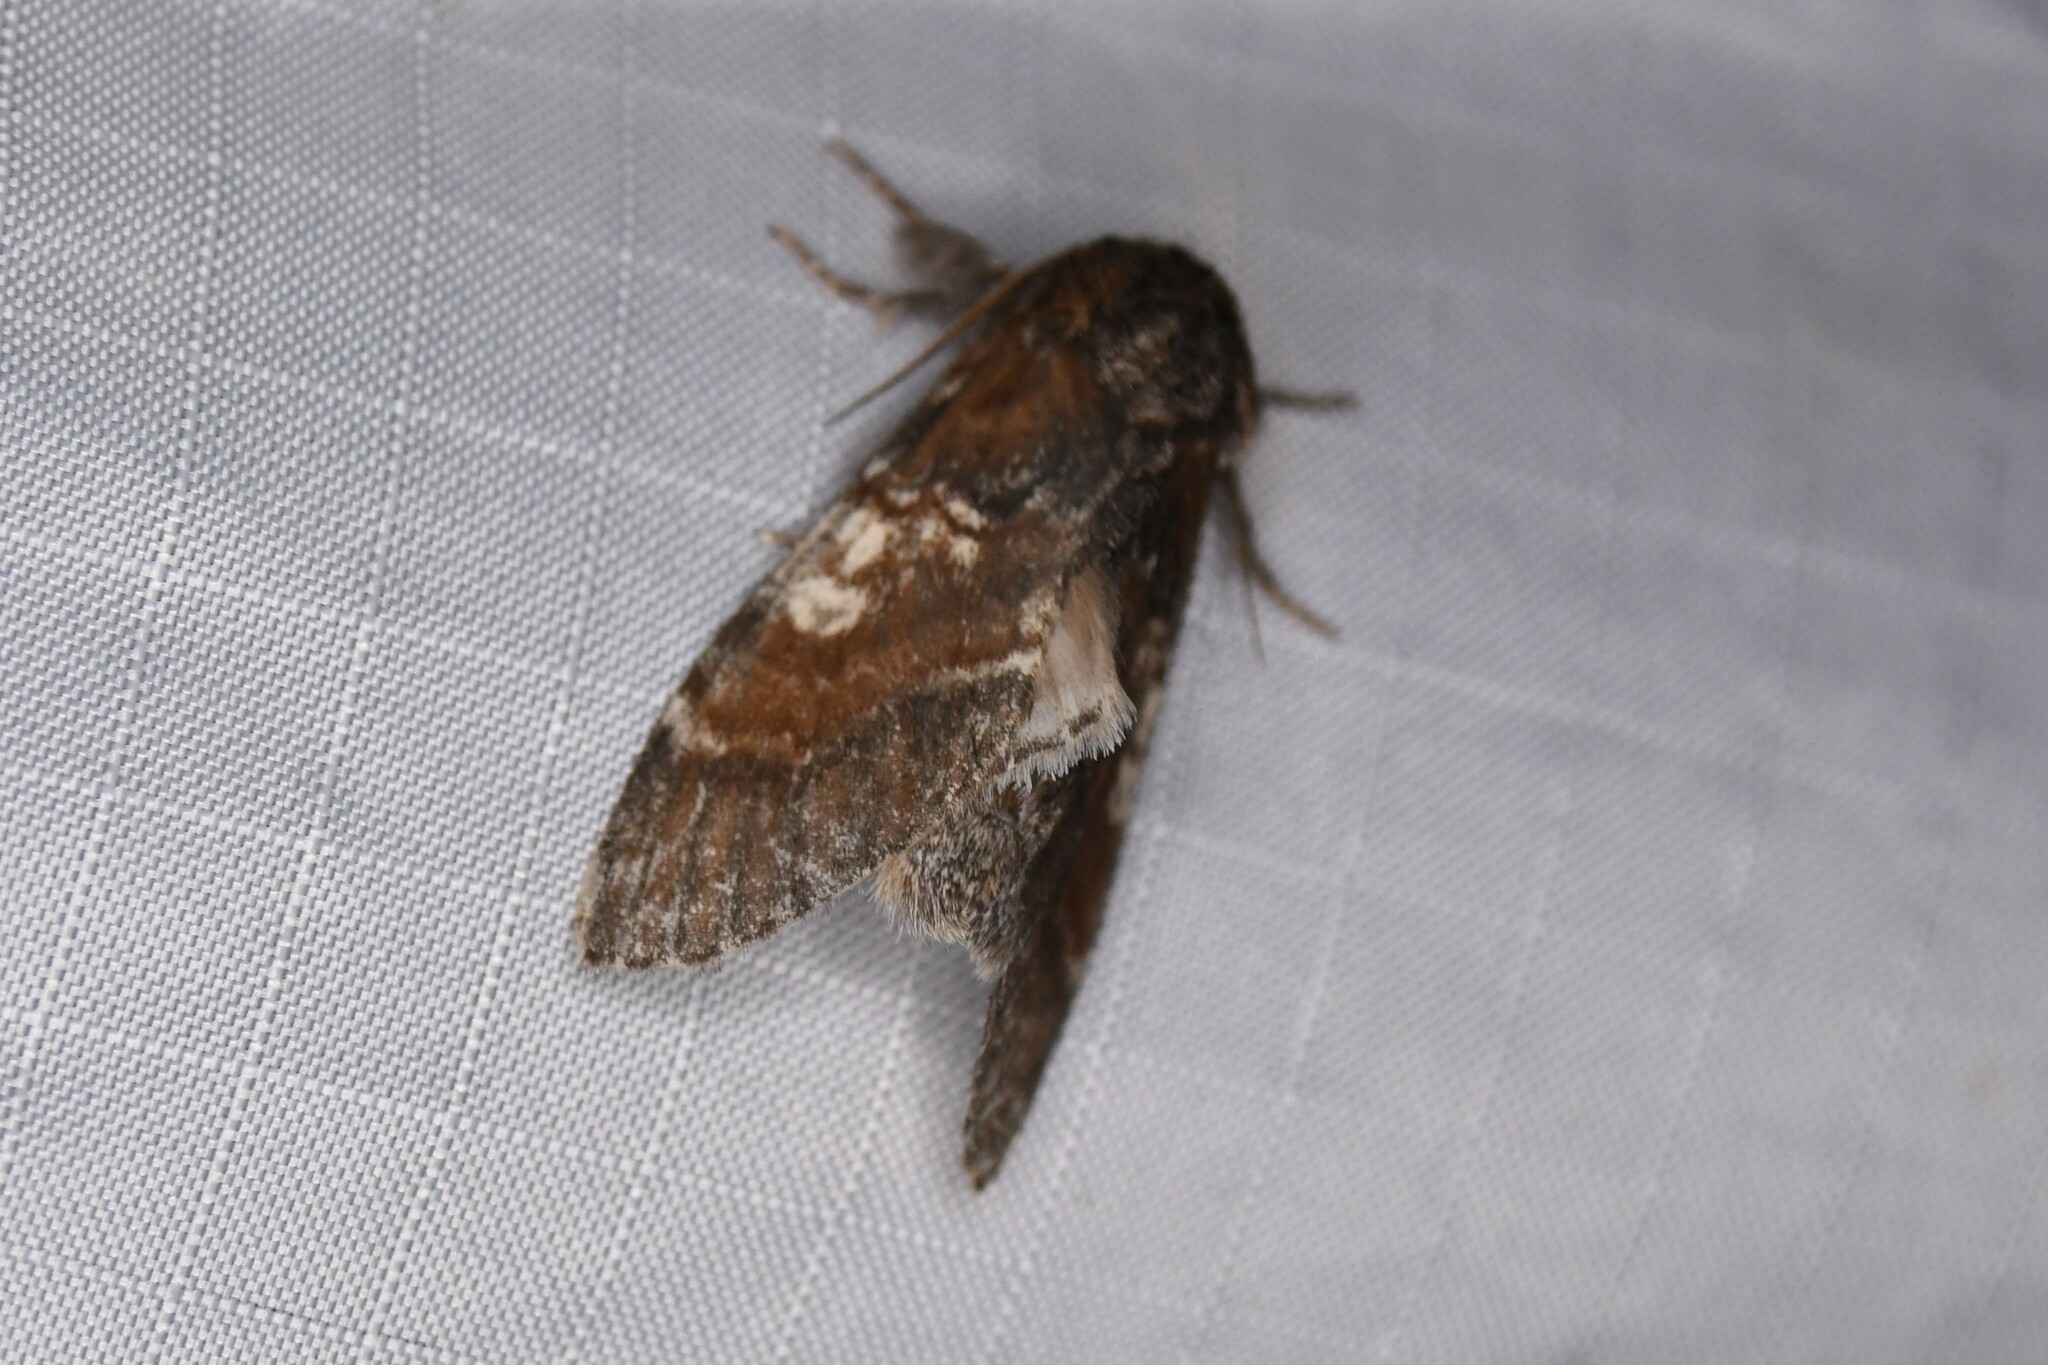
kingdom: Animalia
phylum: Arthropoda
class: Insecta
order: Lepidoptera
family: Notodontidae
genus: Peridea
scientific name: Peridea ferruginea
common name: Chocolate prominent
